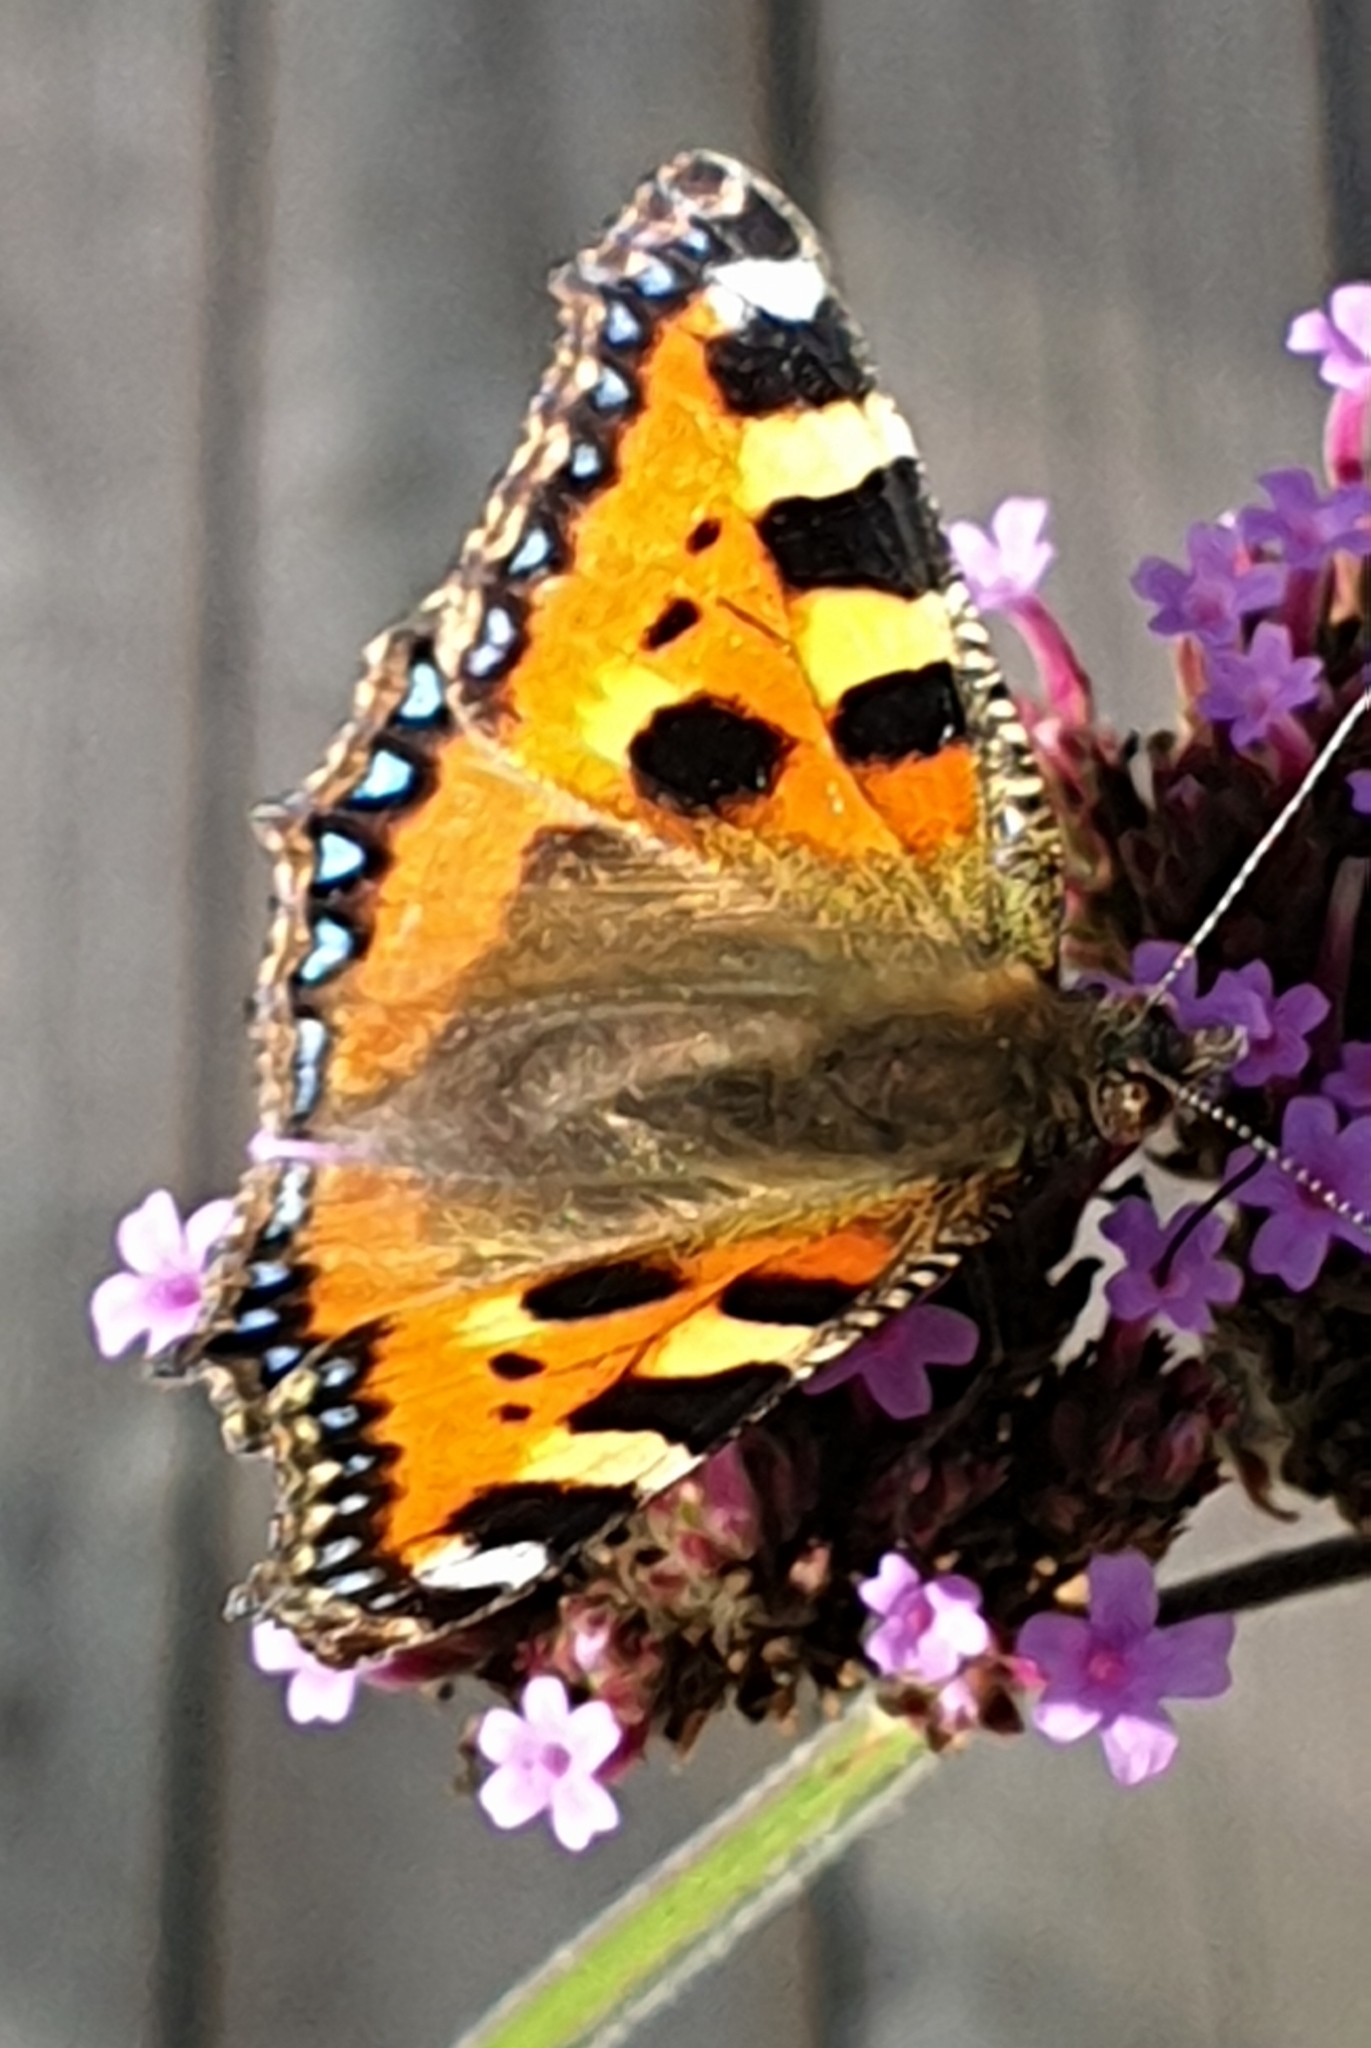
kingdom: Animalia
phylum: Arthropoda
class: Insecta
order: Lepidoptera
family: Nymphalidae
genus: Aglais
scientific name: Aglais urticae
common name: Small tortoiseshell
